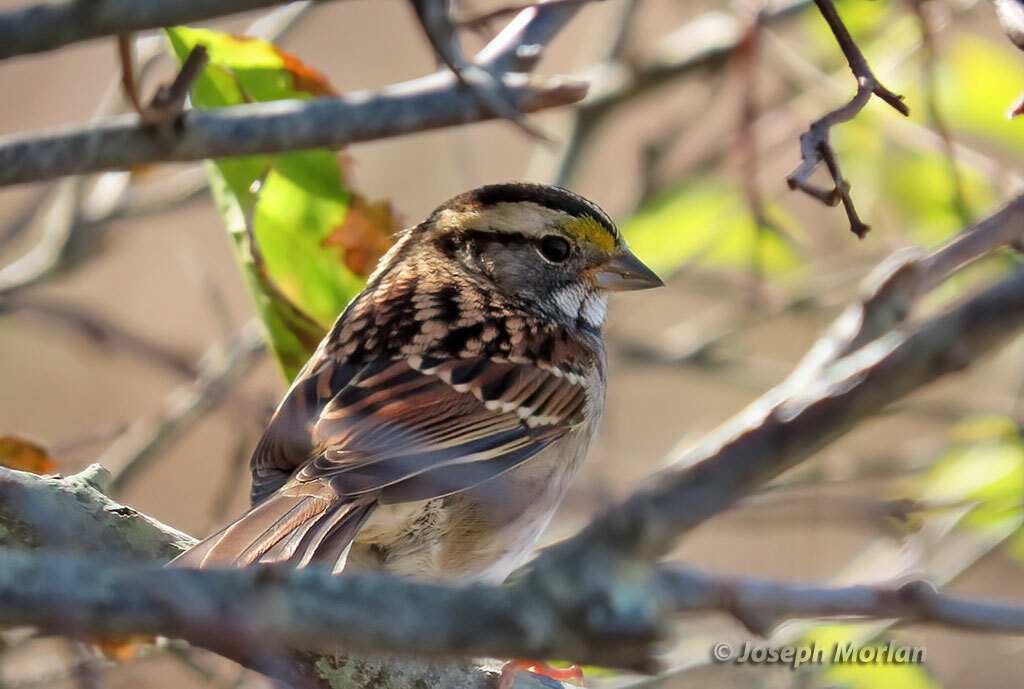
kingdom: Animalia
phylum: Chordata
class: Aves
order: Passeriformes
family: Passerellidae
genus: Zonotrichia
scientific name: Zonotrichia albicollis
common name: White-throated sparrow
